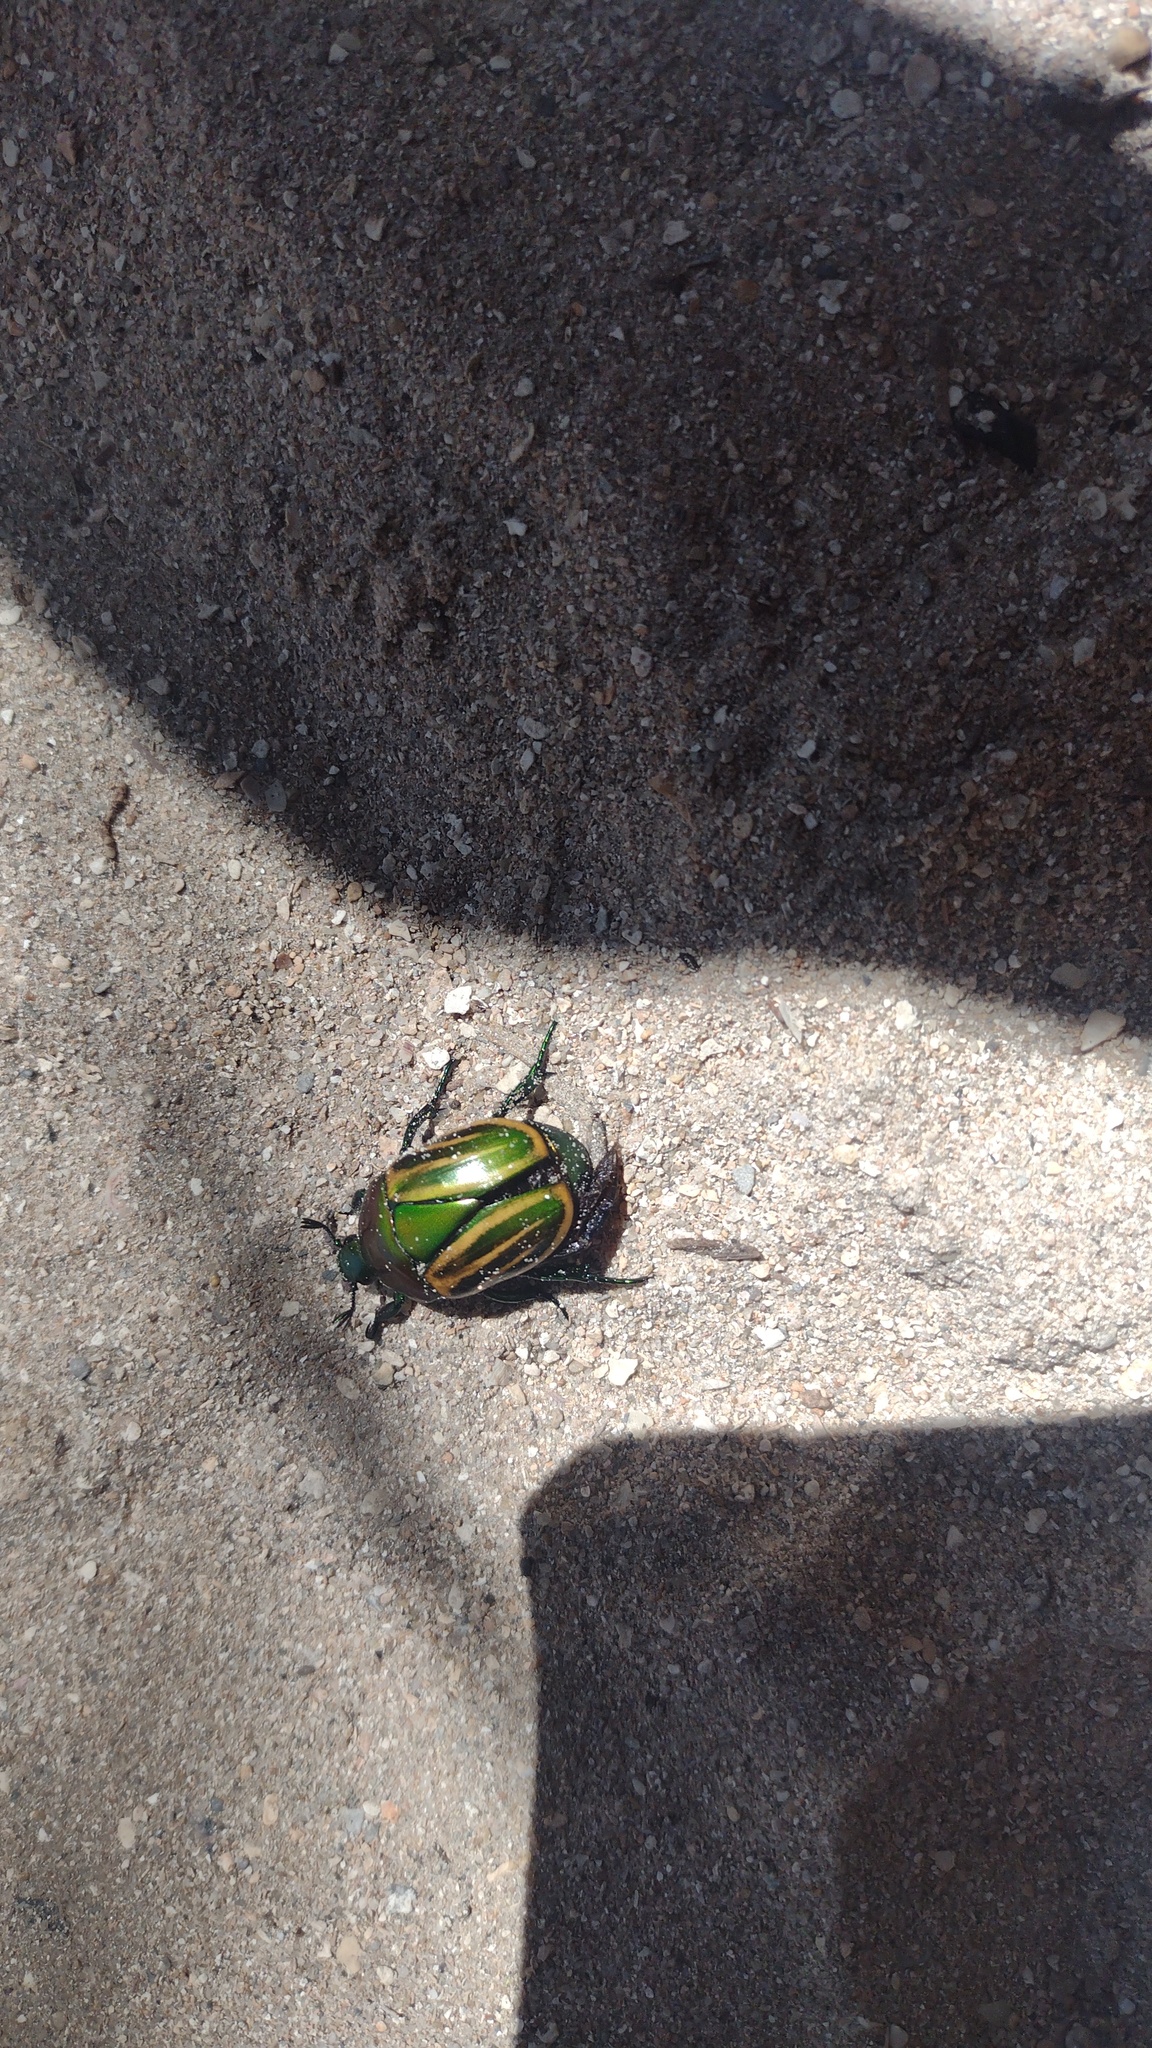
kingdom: Animalia
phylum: Arthropoda
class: Insecta
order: Coleoptera
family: Scarabaeidae
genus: Macraspis
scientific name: Macraspis festiva
